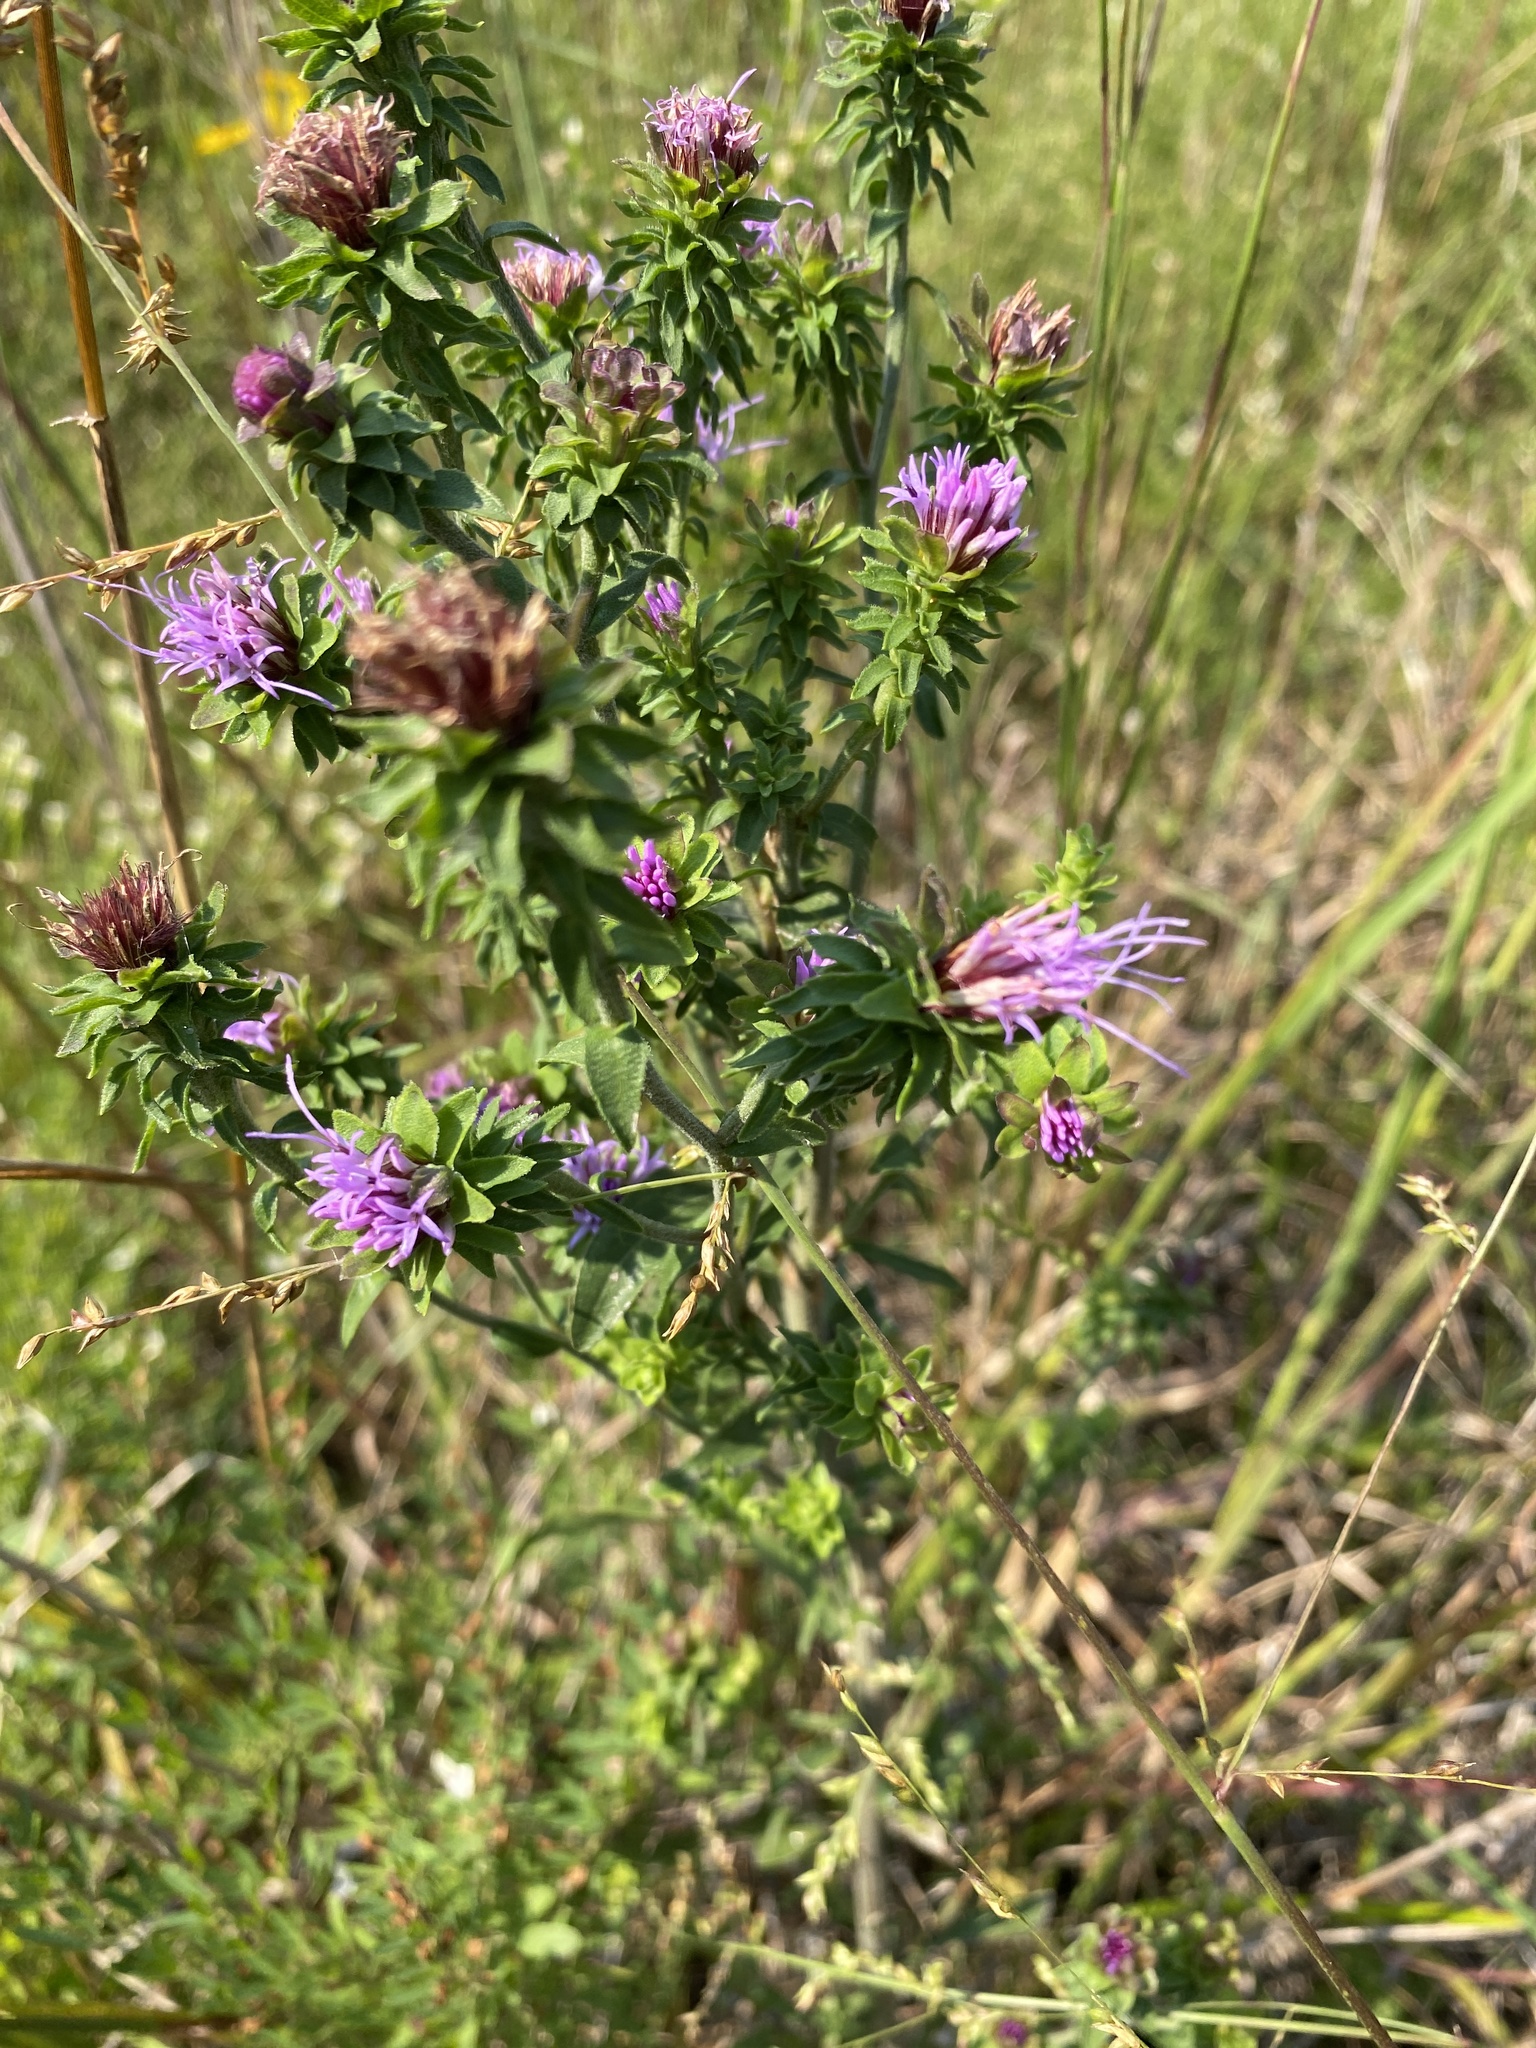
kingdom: Plantae
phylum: Tracheophyta
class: Magnoliopsida
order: Asterales
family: Asteraceae
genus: Liatris
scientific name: Liatris squarrulosa
